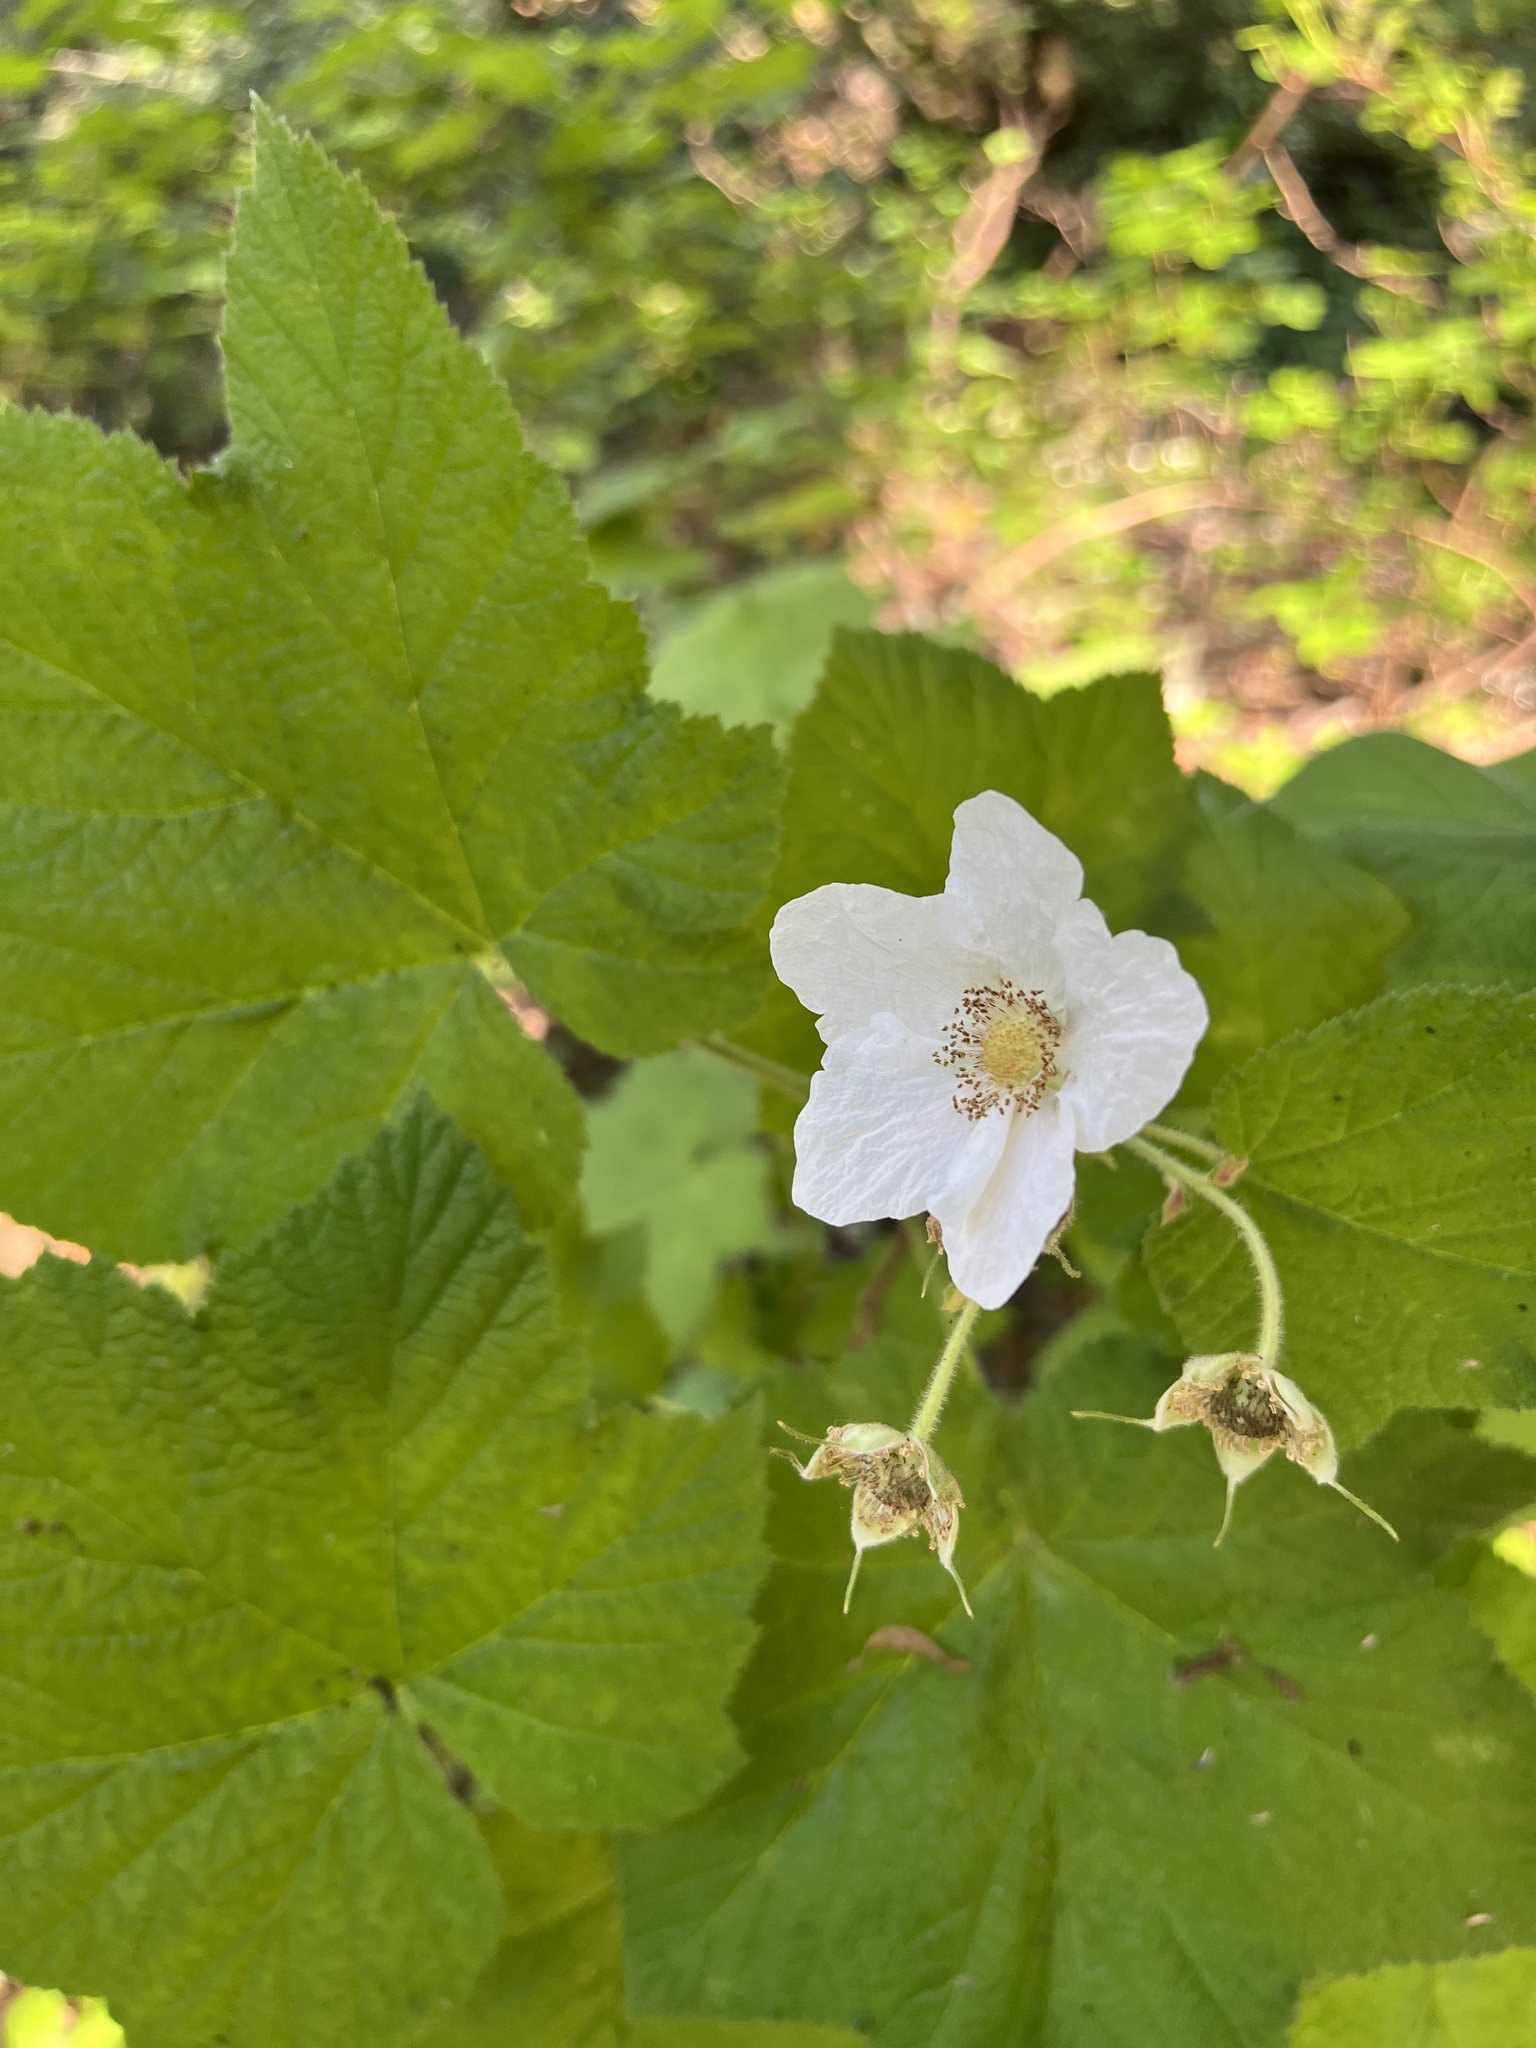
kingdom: Plantae
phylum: Tracheophyta
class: Magnoliopsida
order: Rosales
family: Rosaceae
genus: Rubus
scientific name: Rubus parviflorus
